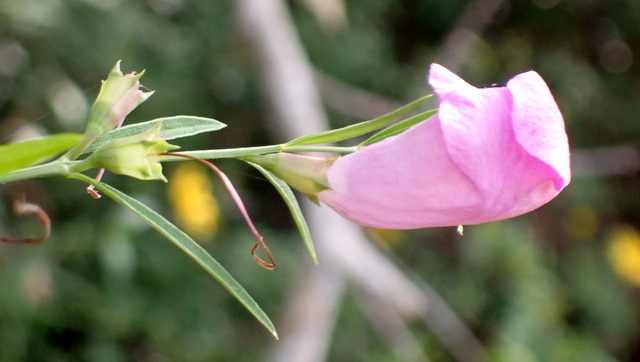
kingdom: Plantae
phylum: Tracheophyta
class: Magnoliopsida
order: Lamiales
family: Orobanchaceae
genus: Agalinis
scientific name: Agalinis fasciculata
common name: Beach false foxglove
